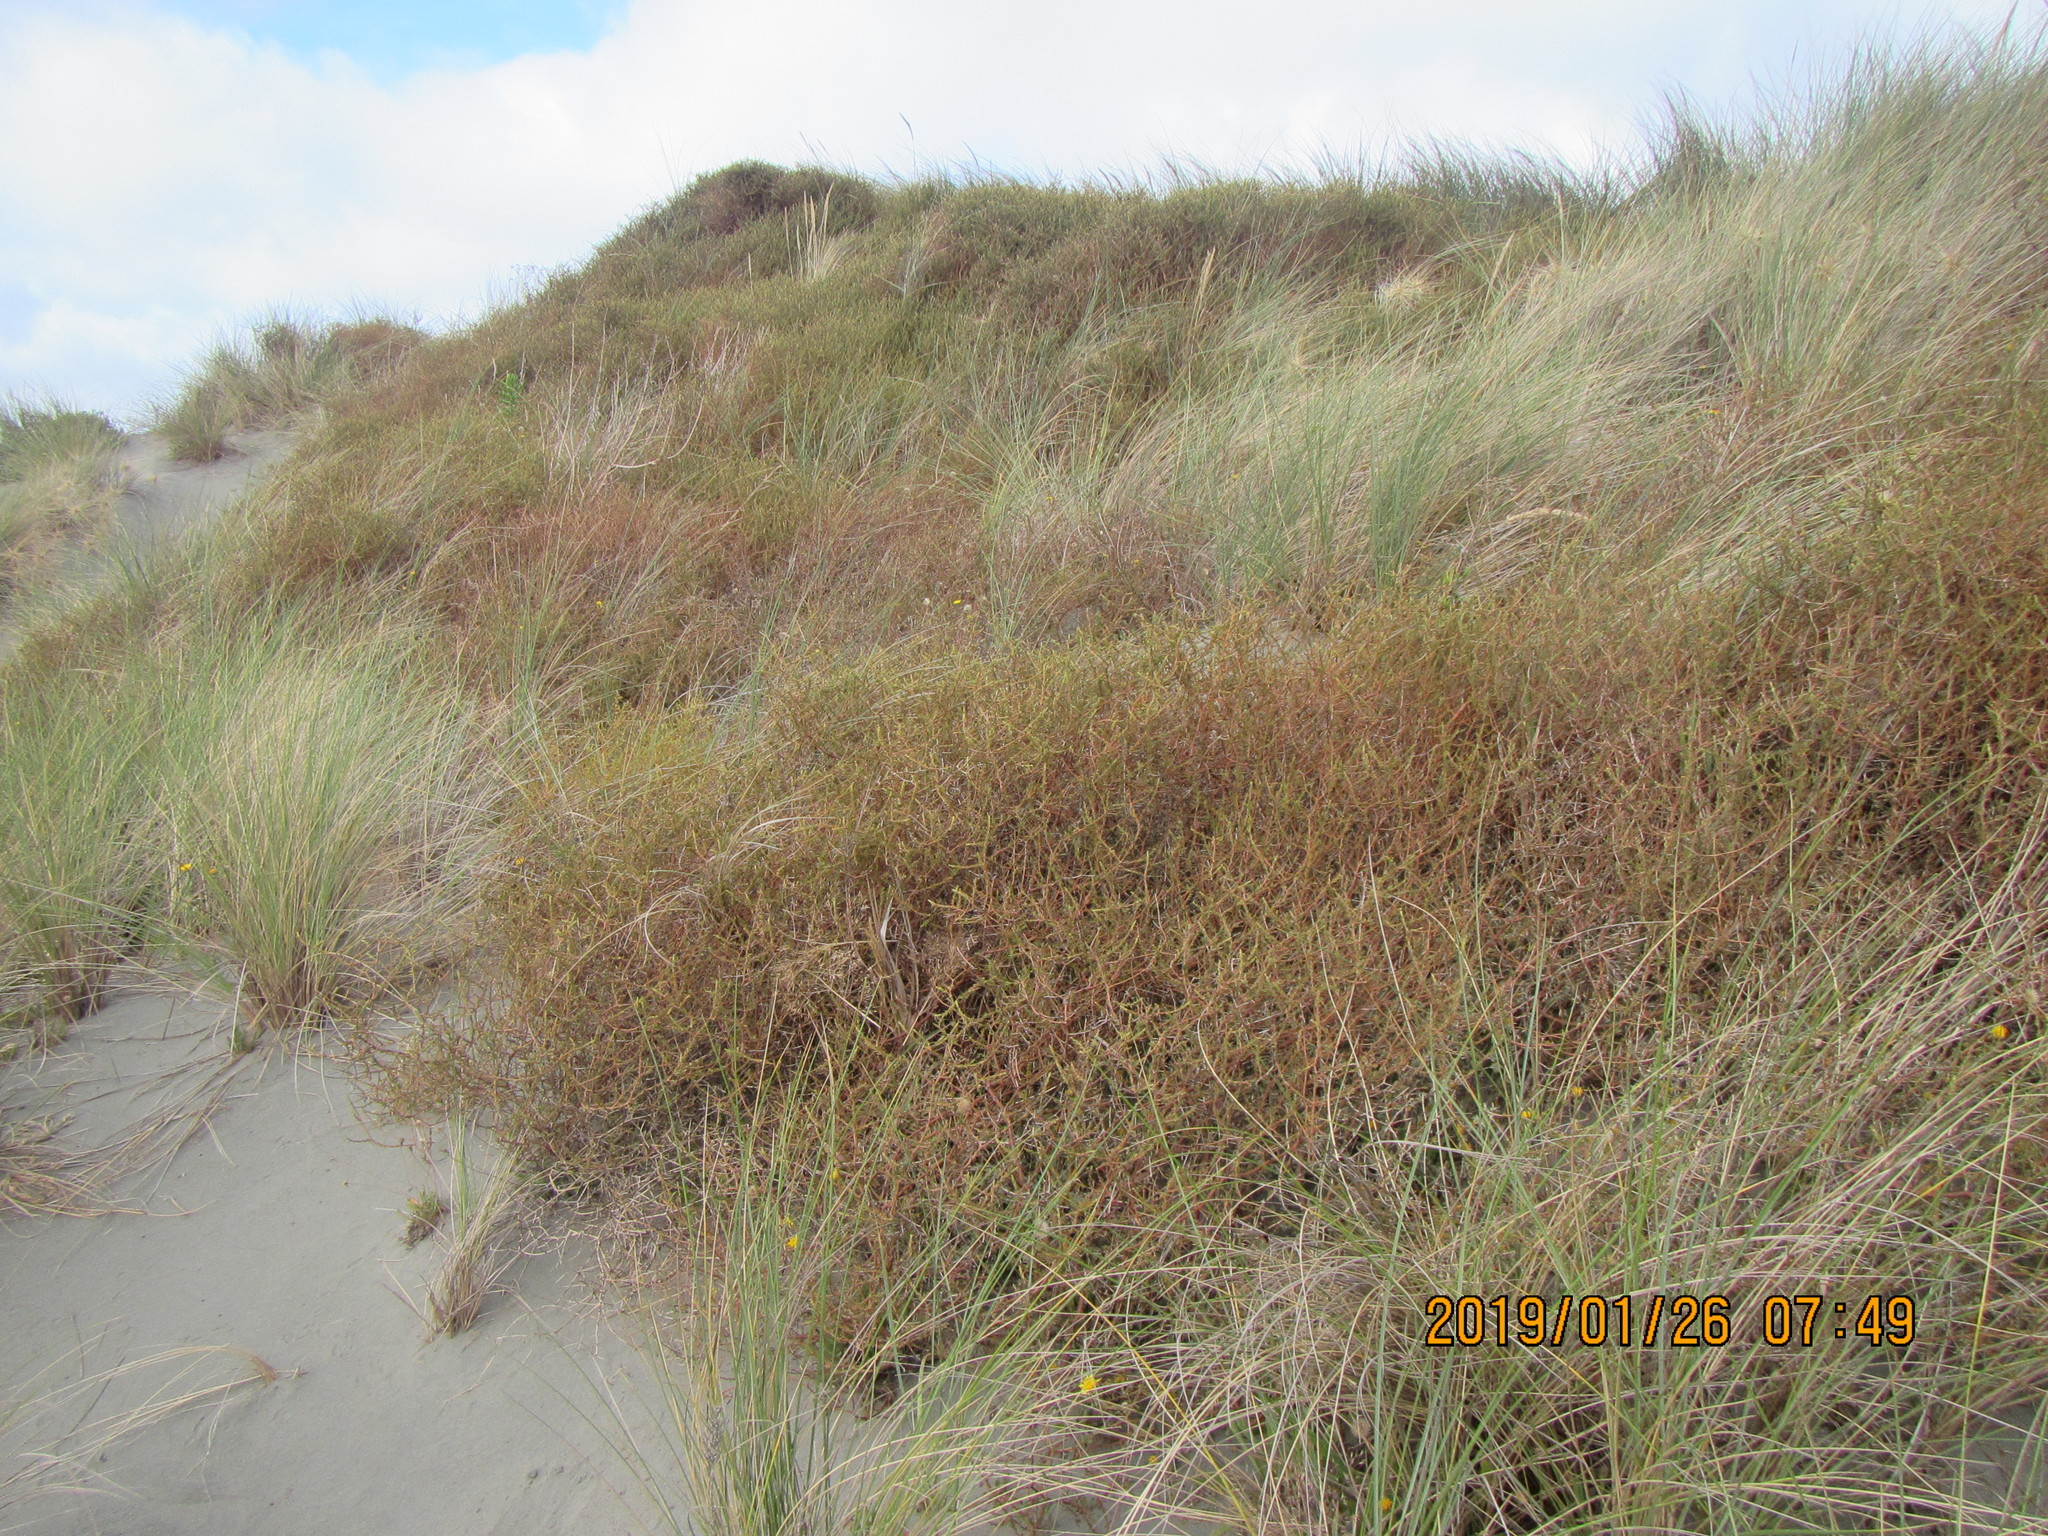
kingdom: Plantae
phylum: Tracheophyta
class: Magnoliopsida
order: Gentianales
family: Rubiaceae
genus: Coprosma
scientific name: Coprosma acerosa
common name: Sand coprosma
